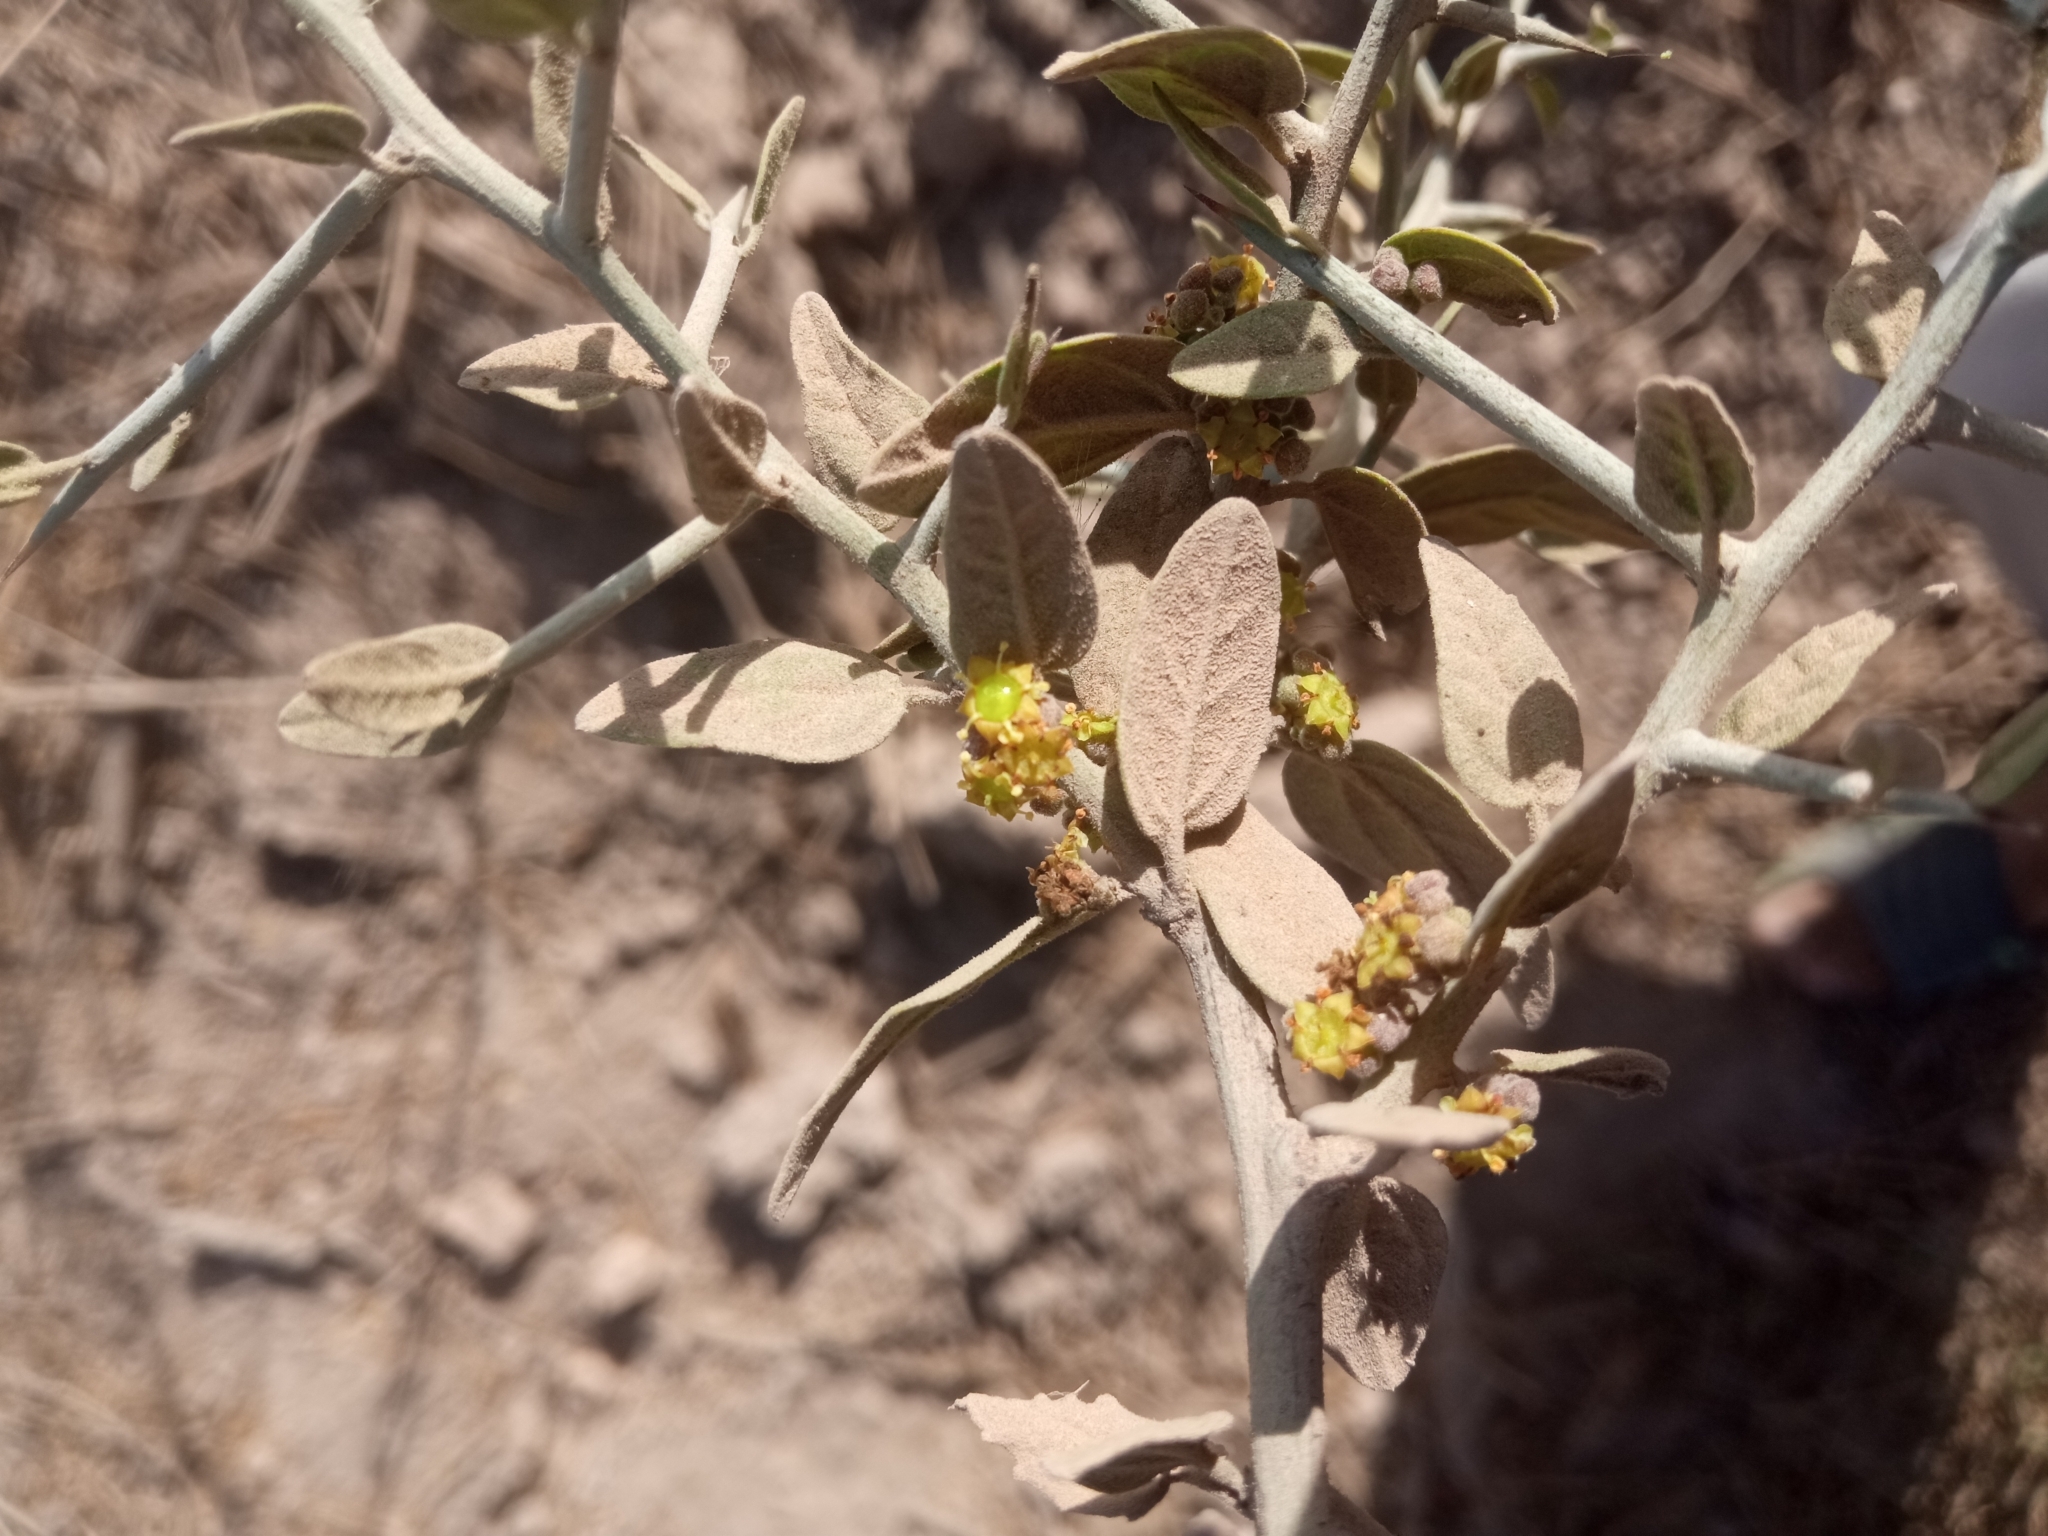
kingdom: Plantae
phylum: Tracheophyta
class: Magnoliopsida
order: Rosales
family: Rhamnaceae
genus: Sarcomphalus
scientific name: Sarcomphalus obtusifolius
